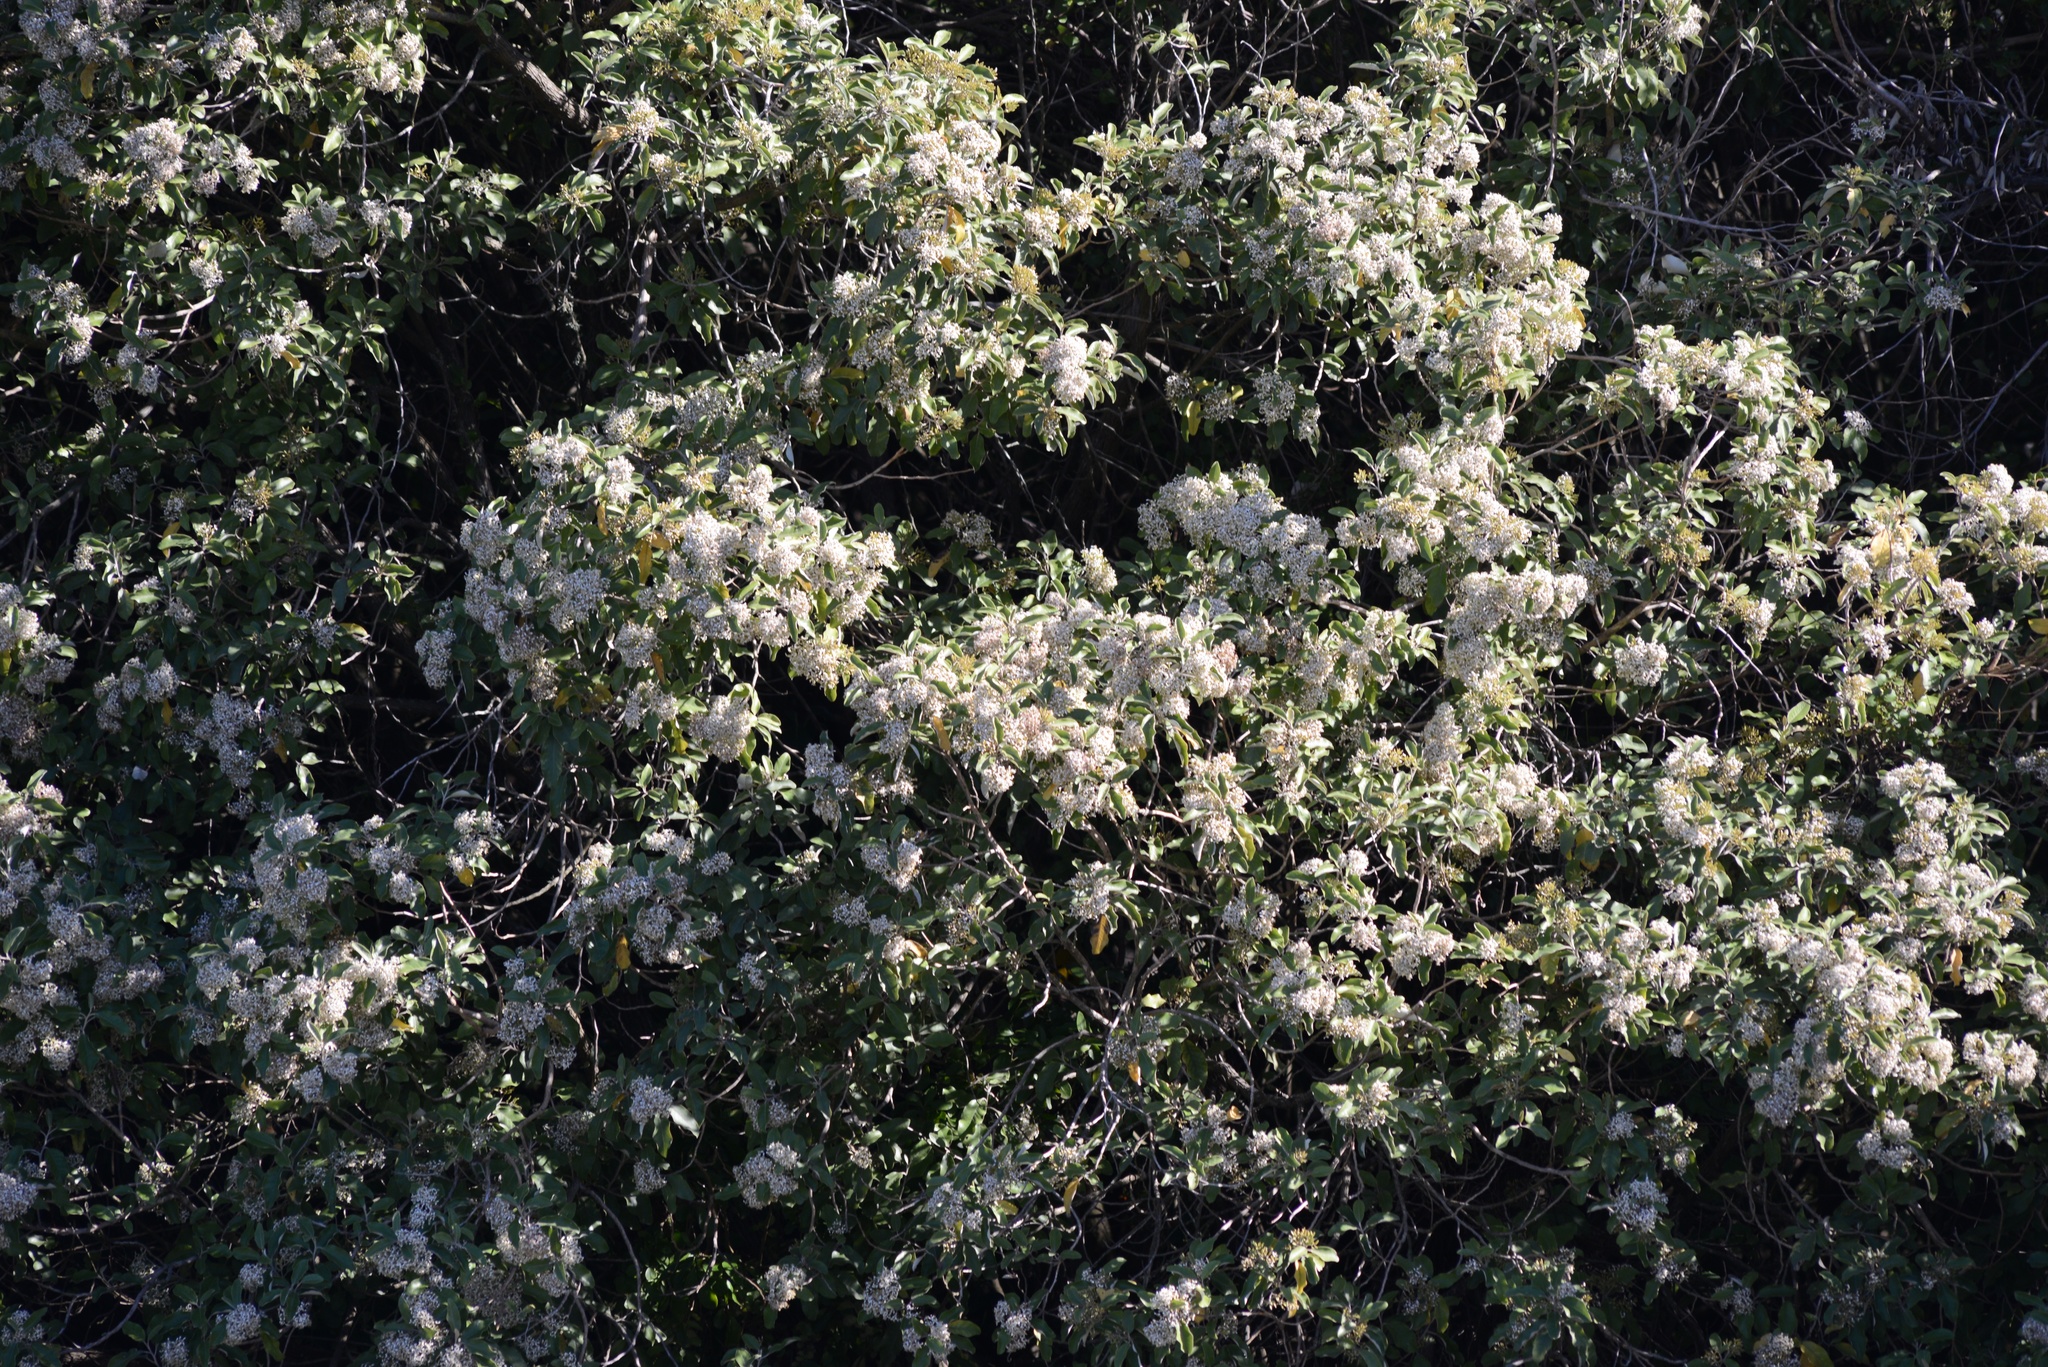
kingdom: Plantae
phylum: Tracheophyta
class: Magnoliopsida
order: Asterales
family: Asteraceae
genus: Olearia
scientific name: Olearia avicenniifolia
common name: Mangrove-leaf daisybush
